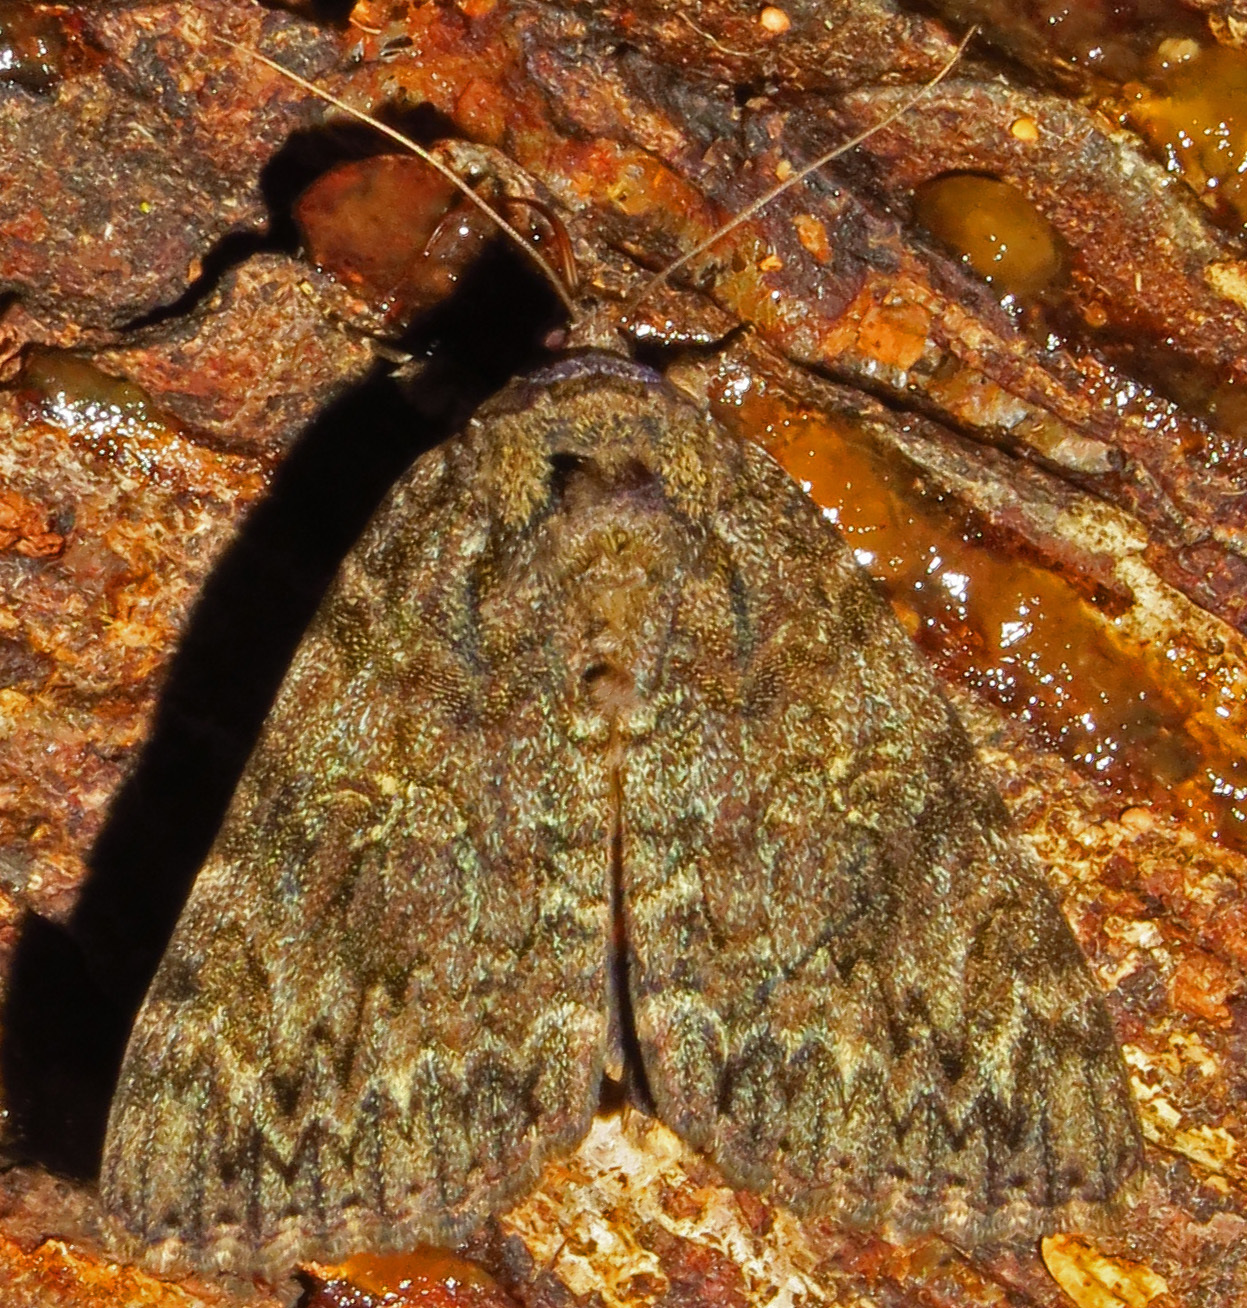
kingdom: Animalia
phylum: Arthropoda
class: Insecta
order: Lepidoptera
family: Erebidae
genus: Catocala
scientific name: Catocala ilia
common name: Ilia underwing
